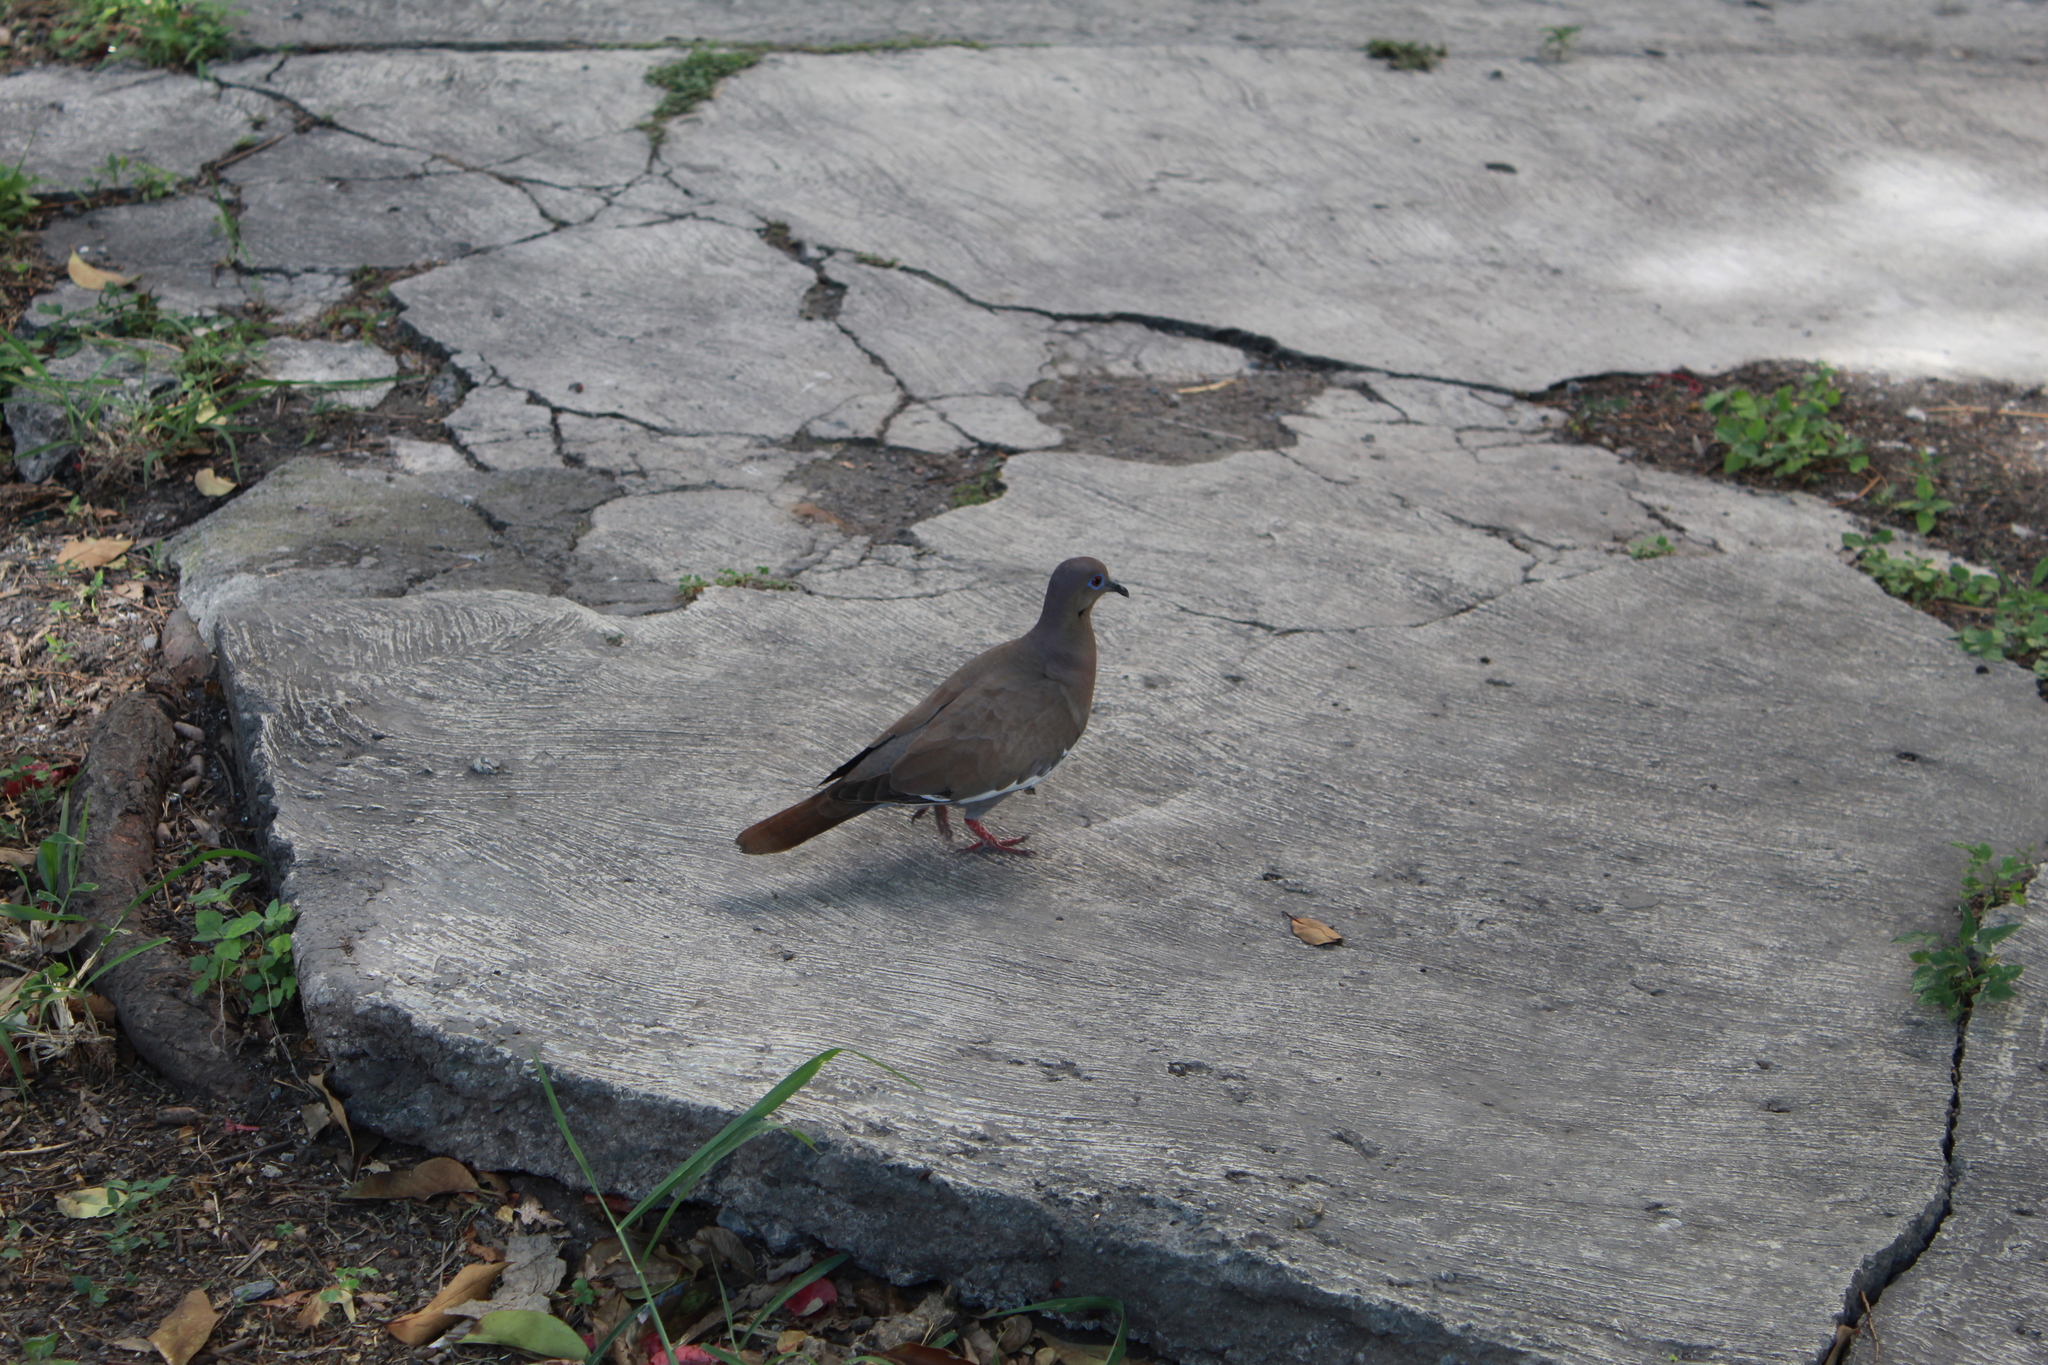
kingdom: Animalia
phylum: Chordata
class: Aves
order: Columbiformes
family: Columbidae
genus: Zenaida
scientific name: Zenaida asiatica
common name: White-winged dove
